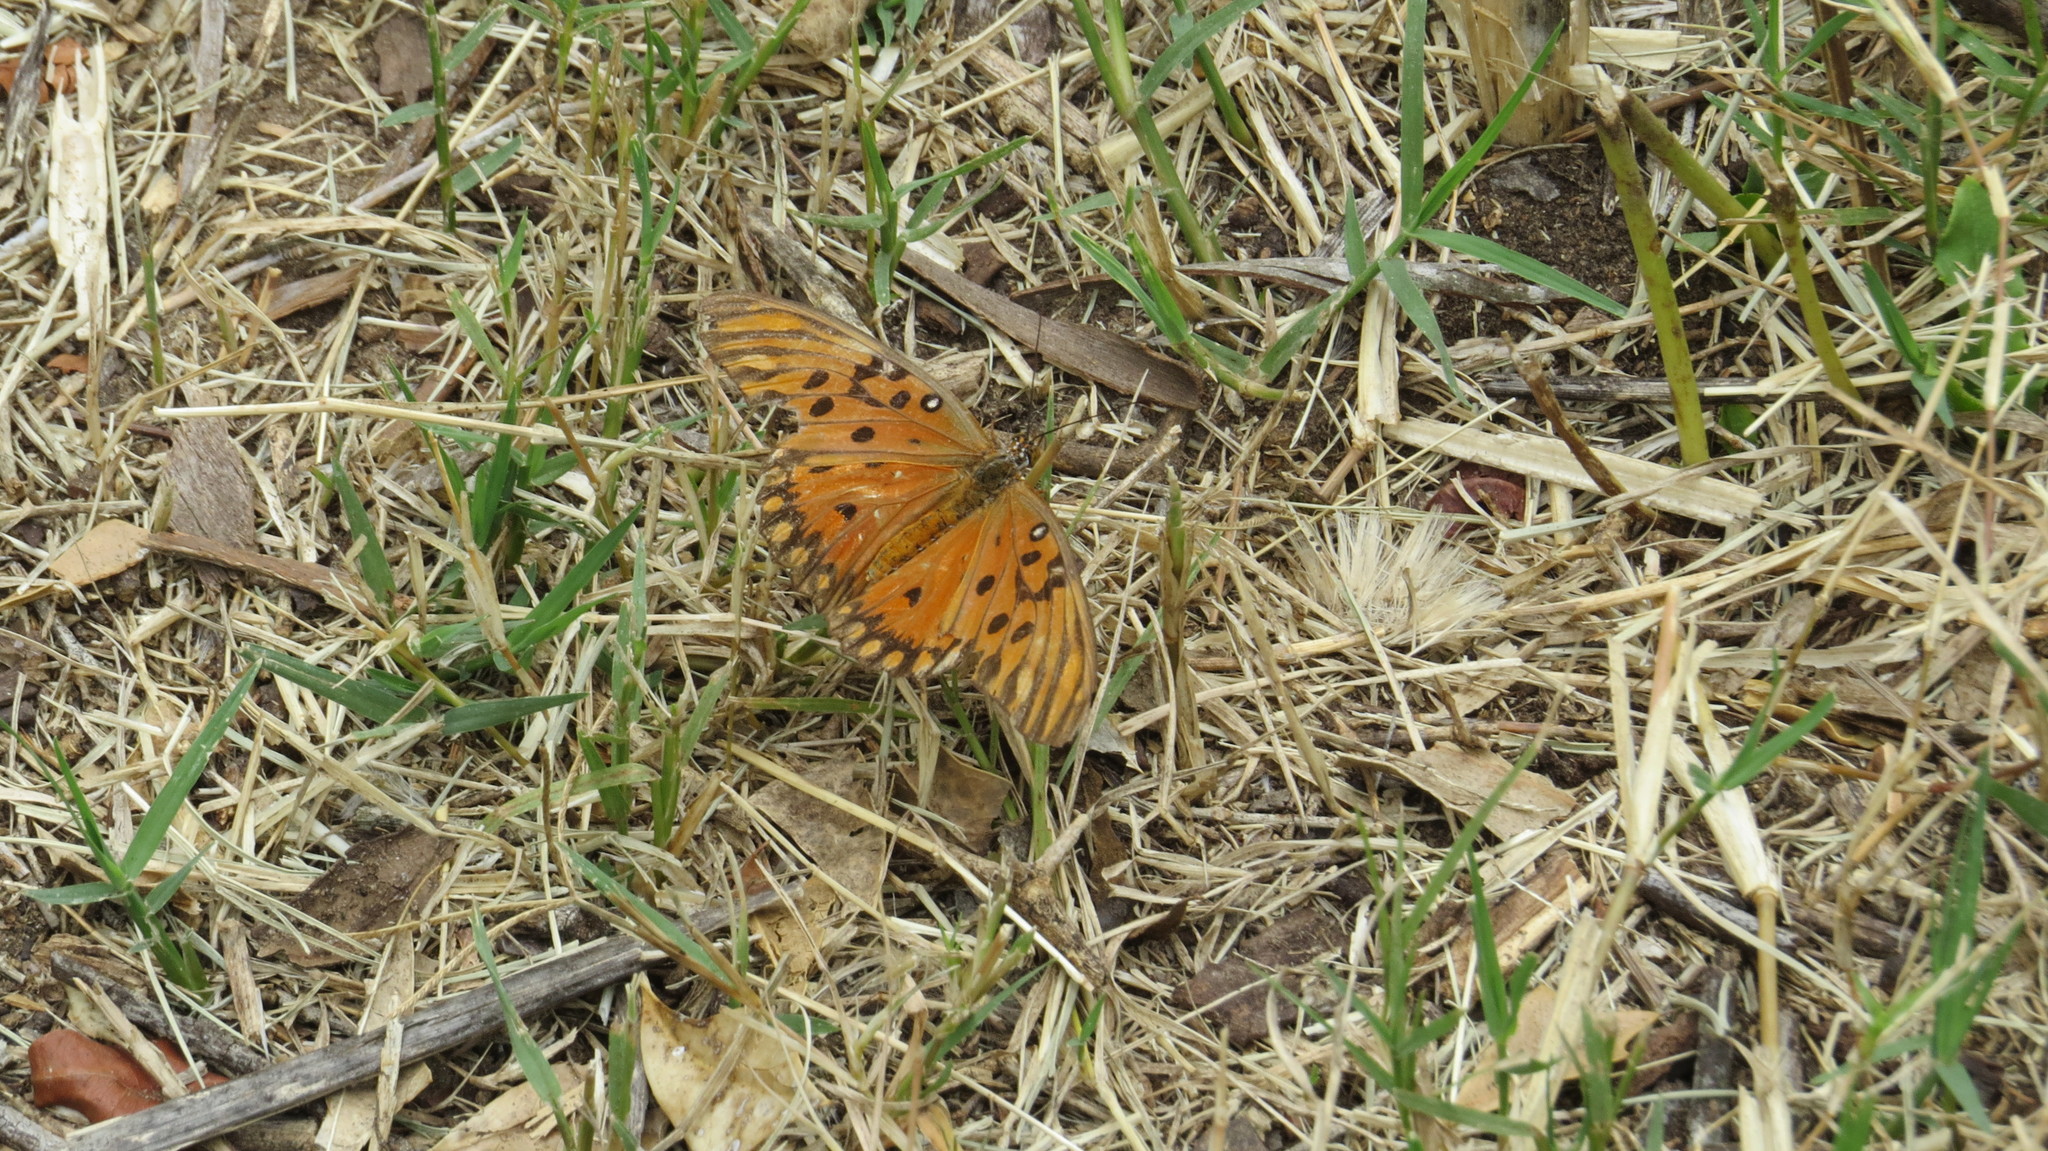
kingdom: Animalia
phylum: Arthropoda
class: Insecta
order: Lepidoptera
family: Nymphalidae
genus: Dione
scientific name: Dione vanillae
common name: Gulf fritillary
